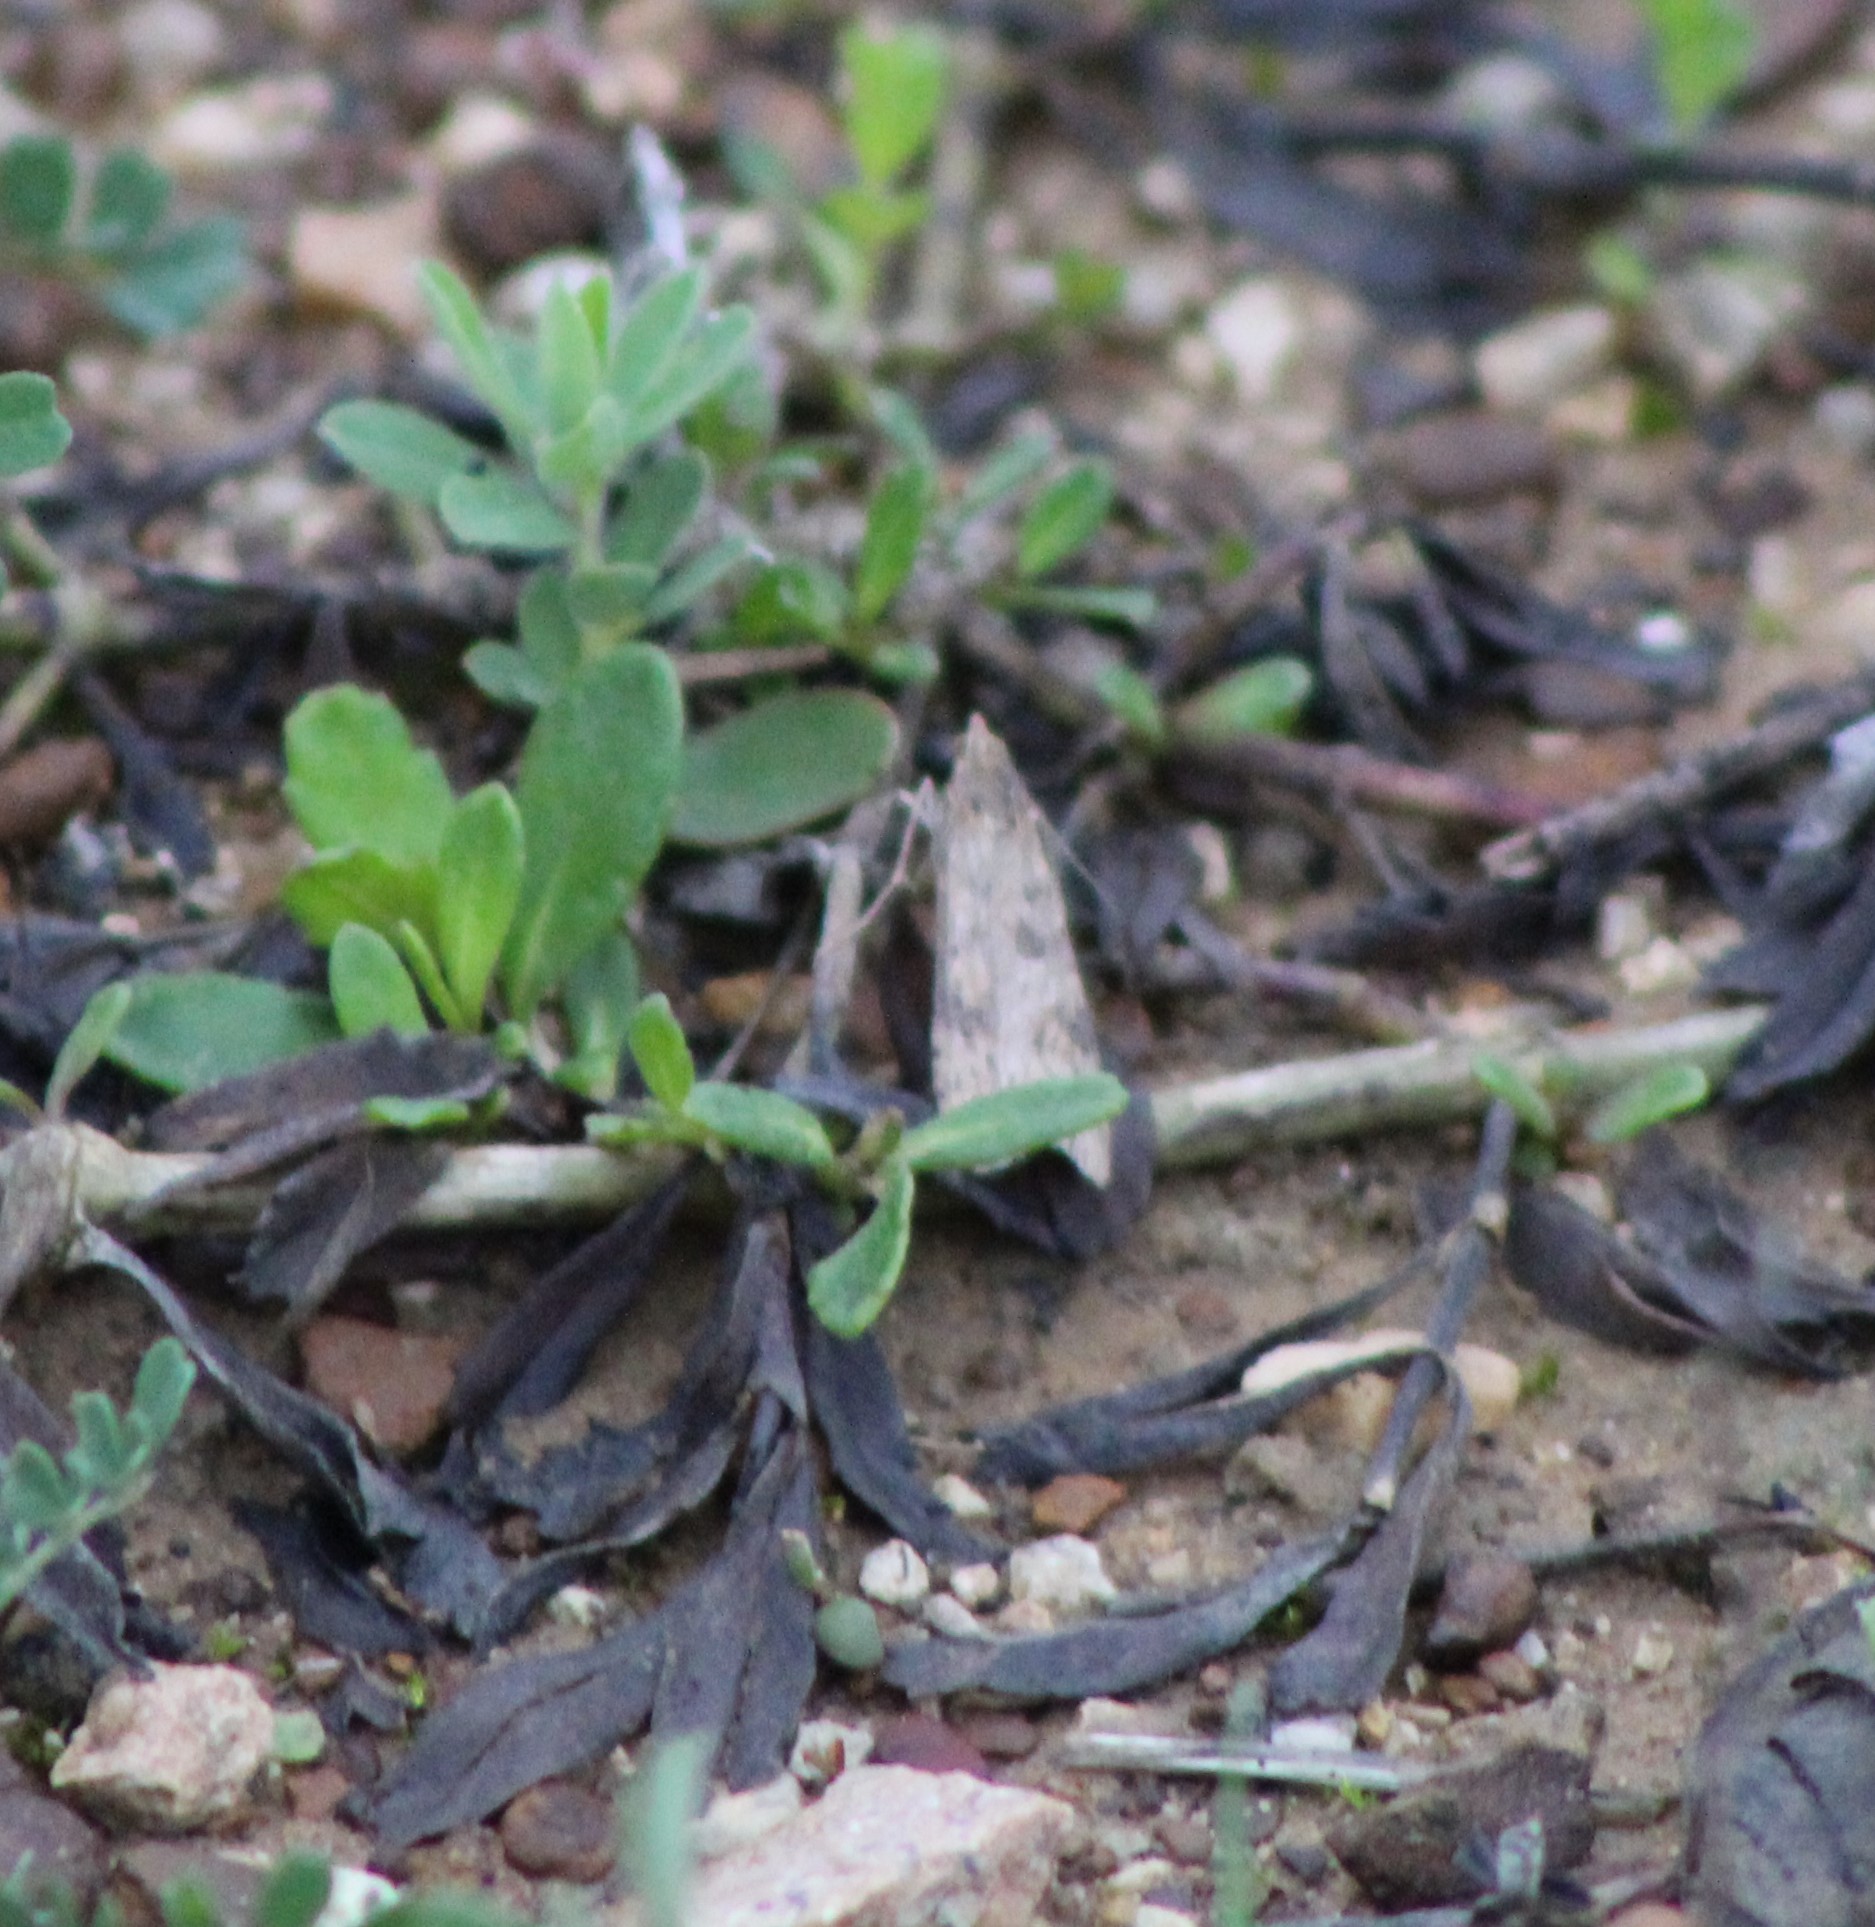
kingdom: Animalia
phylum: Arthropoda
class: Insecta
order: Lepidoptera
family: Crambidae
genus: Nomophila
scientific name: Nomophila nearctica
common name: American rush veneer
